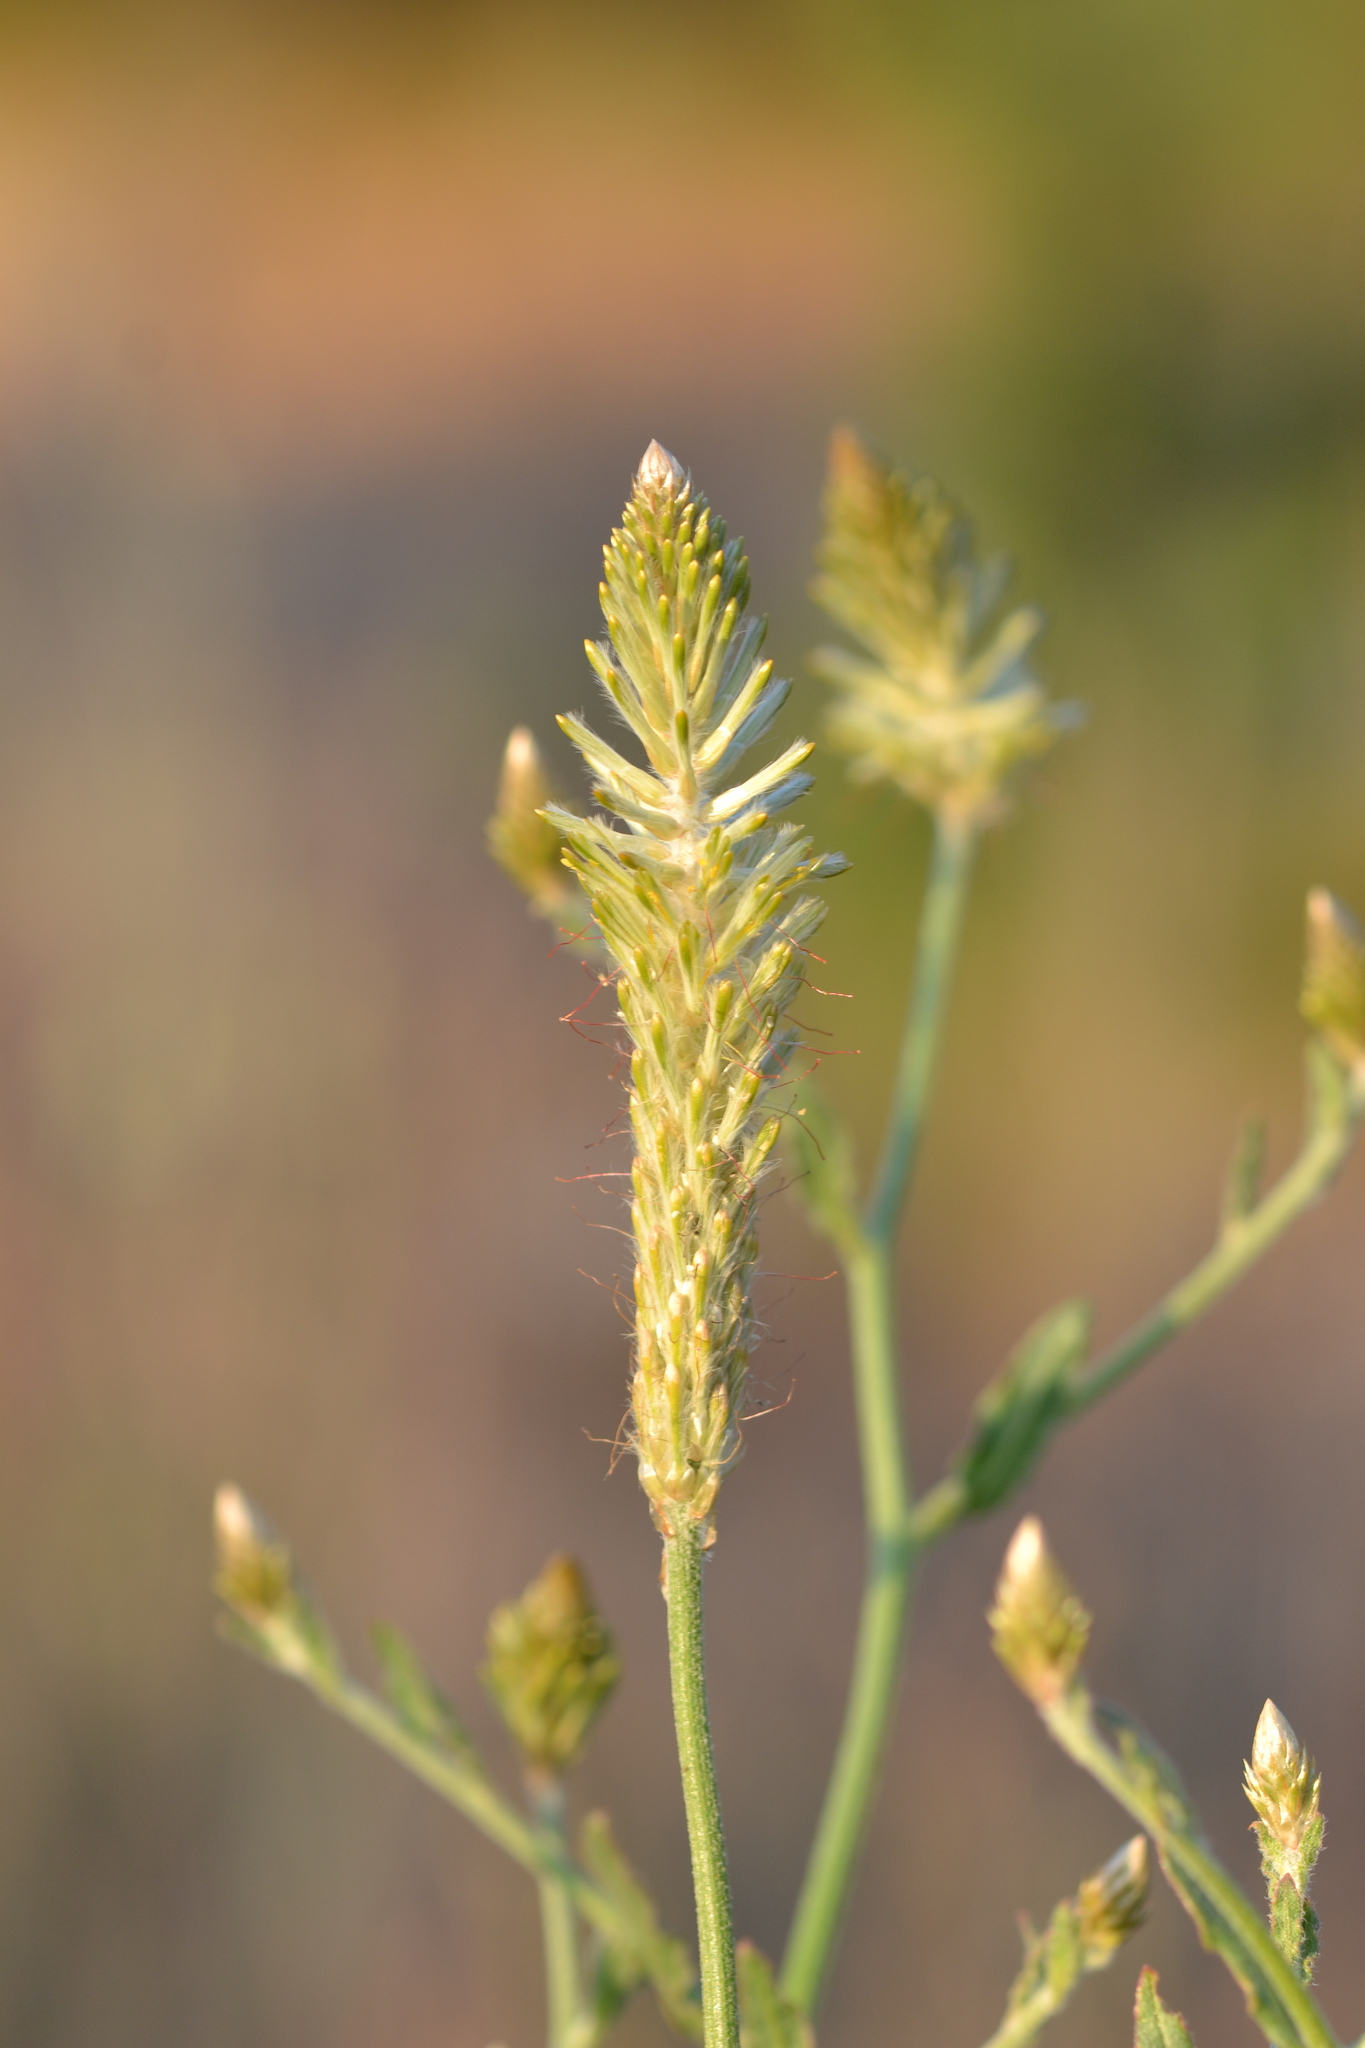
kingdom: Plantae
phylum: Tracheophyta
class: Magnoliopsida
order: Caryophyllales
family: Amaranthaceae
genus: Ptilotus
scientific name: Ptilotus polystachyus
